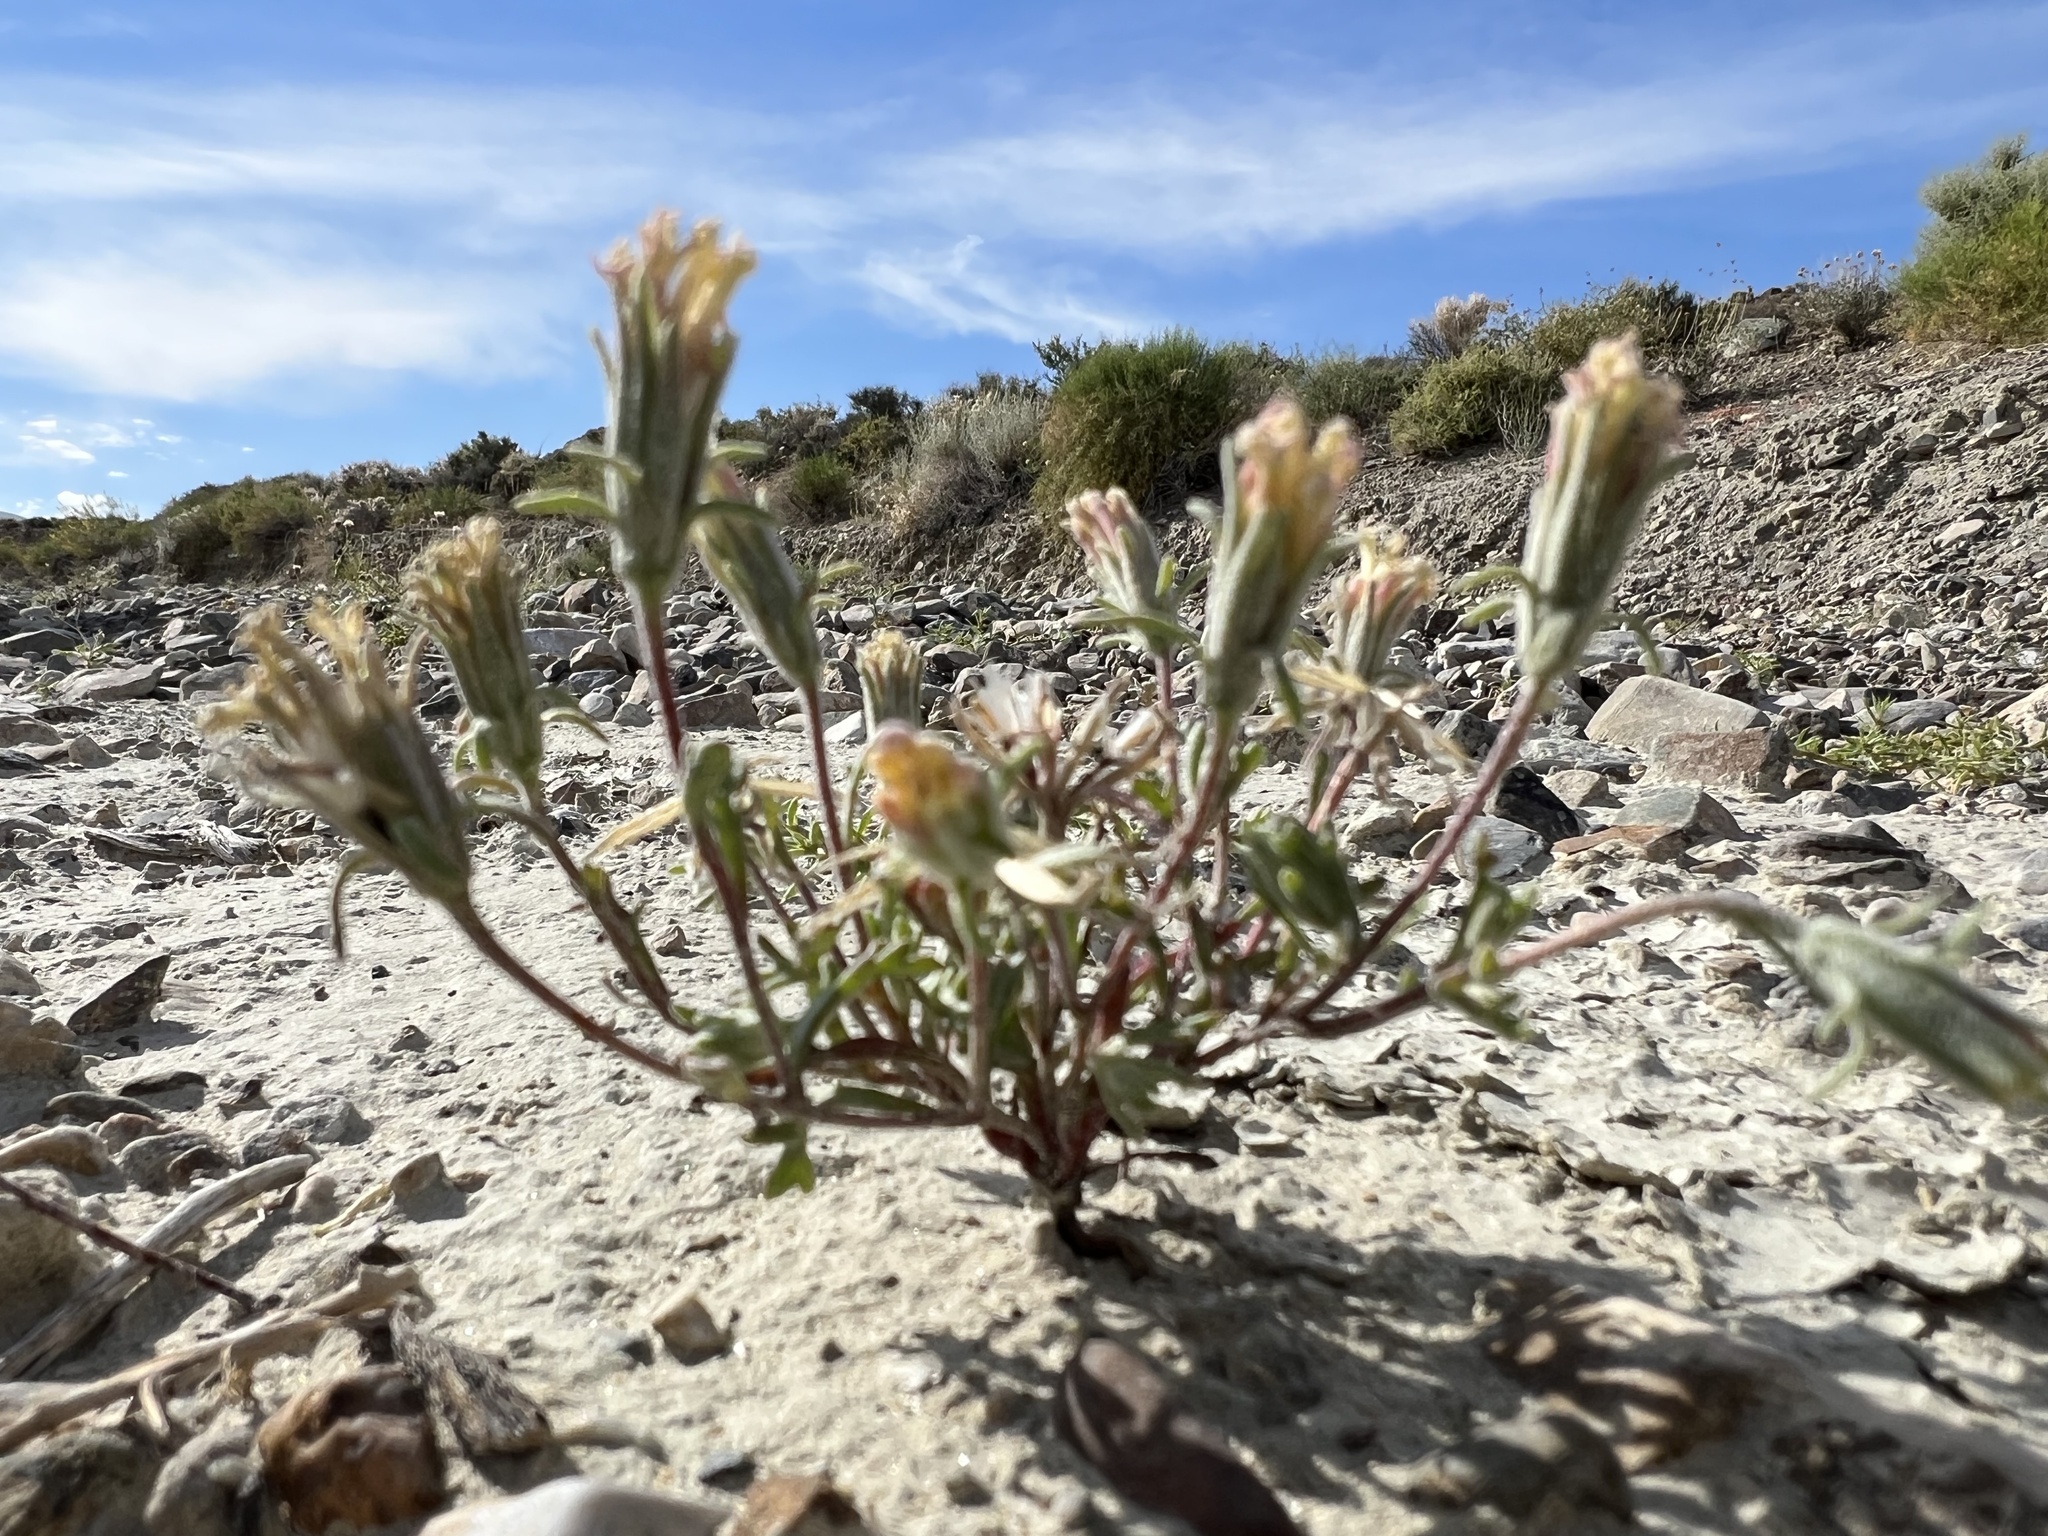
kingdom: Plantae
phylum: Tracheophyta
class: Magnoliopsida
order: Asterales
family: Asteraceae
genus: Chaenactis
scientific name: Chaenactis macrantha
